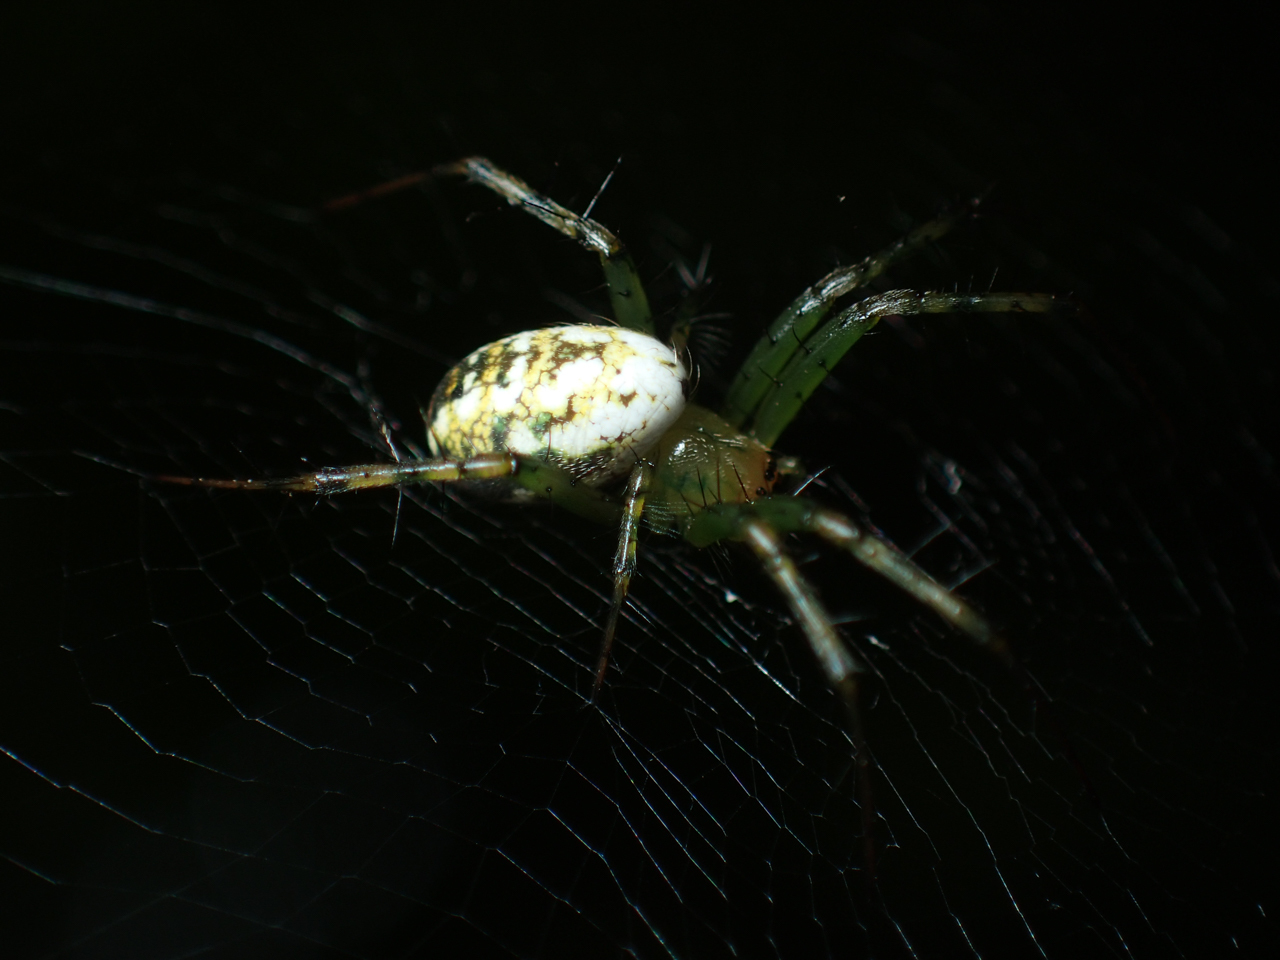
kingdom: Animalia
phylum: Arthropoda
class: Arachnida
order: Araneae
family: Araneidae
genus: Mangora
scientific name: Mangora spiculata
